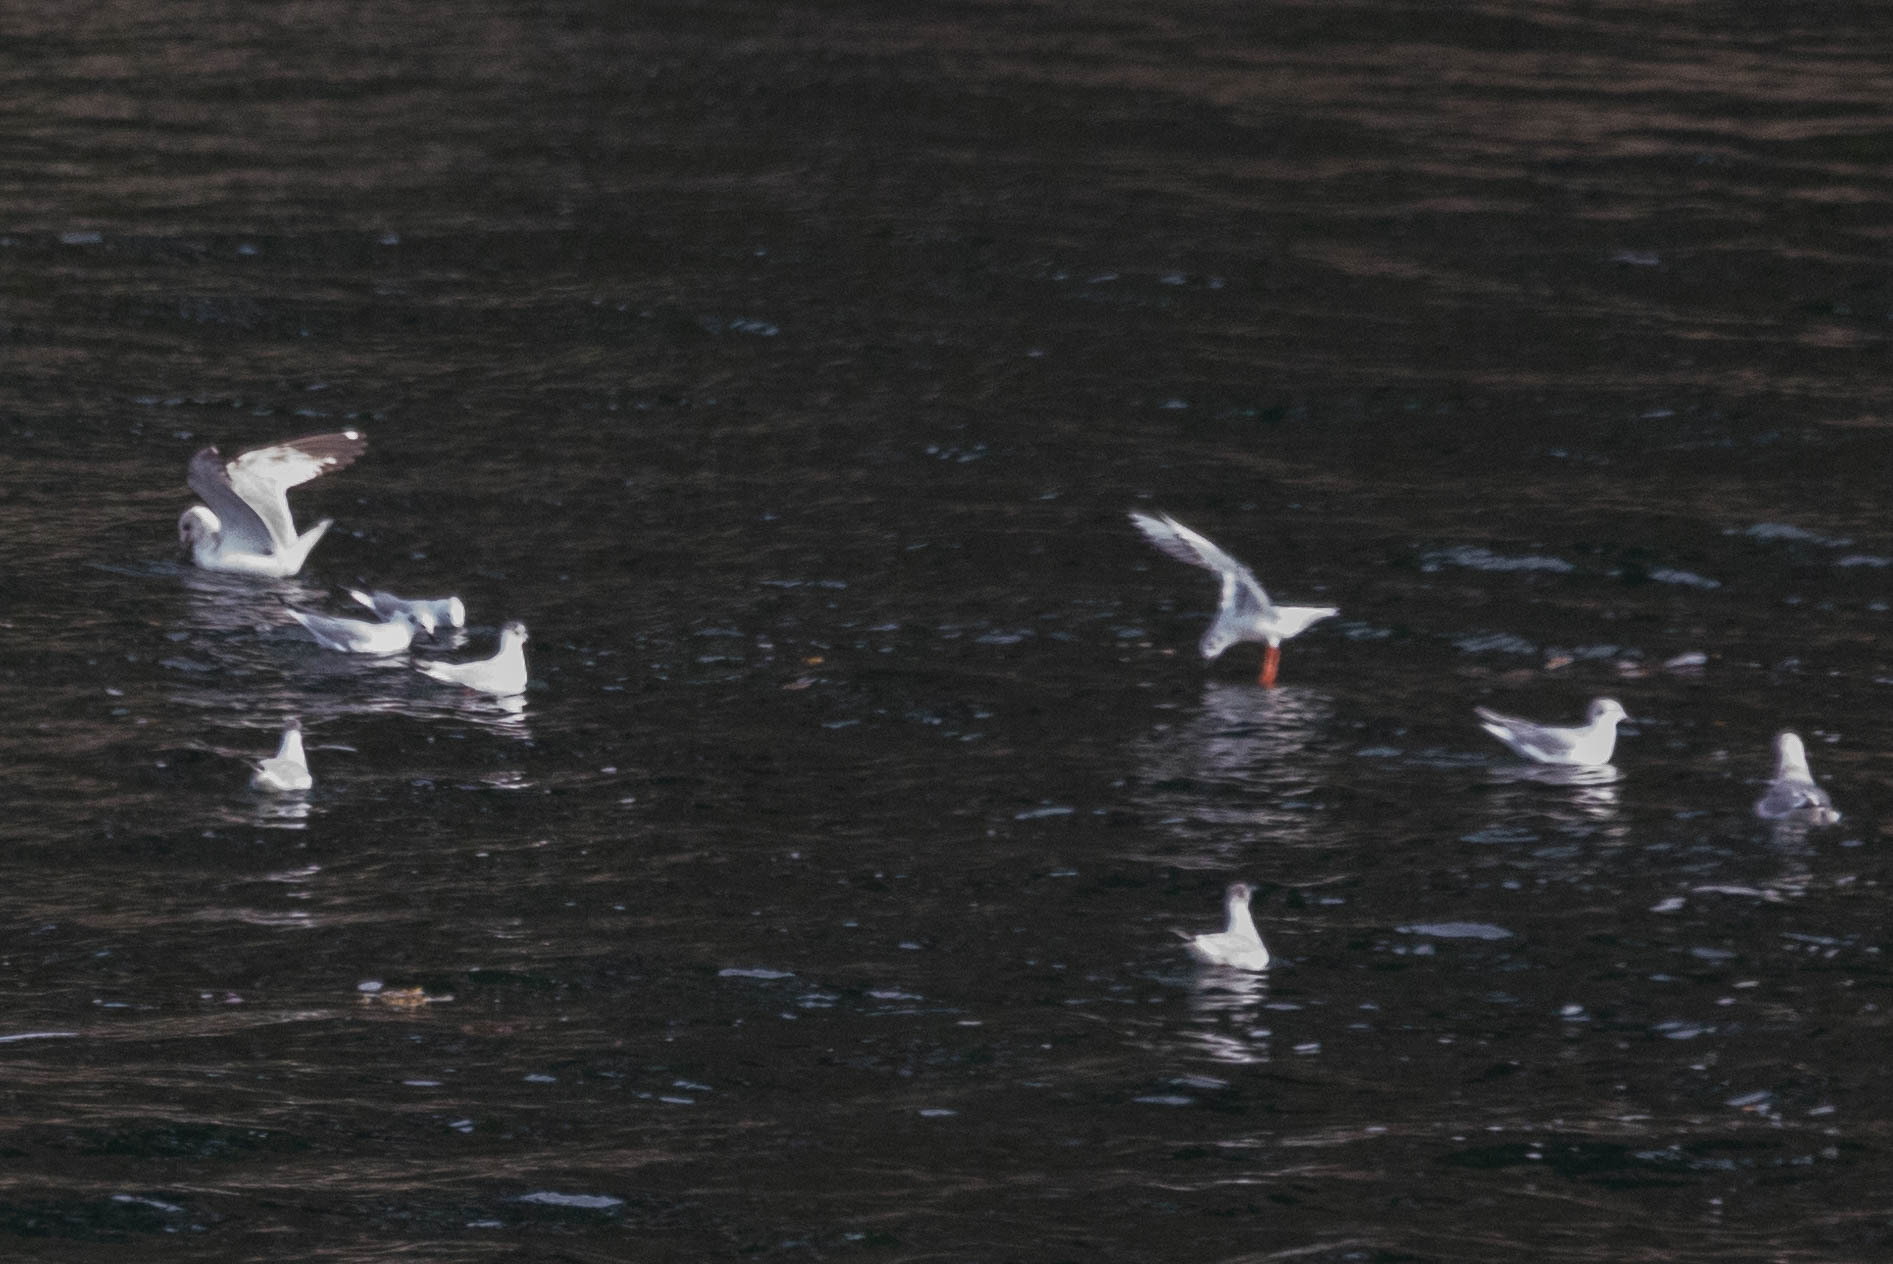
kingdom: Animalia
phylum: Chordata
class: Aves
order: Charadriiformes
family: Laridae
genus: Chroicocephalus
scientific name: Chroicocephalus philadelphia
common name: Bonaparte's gull
